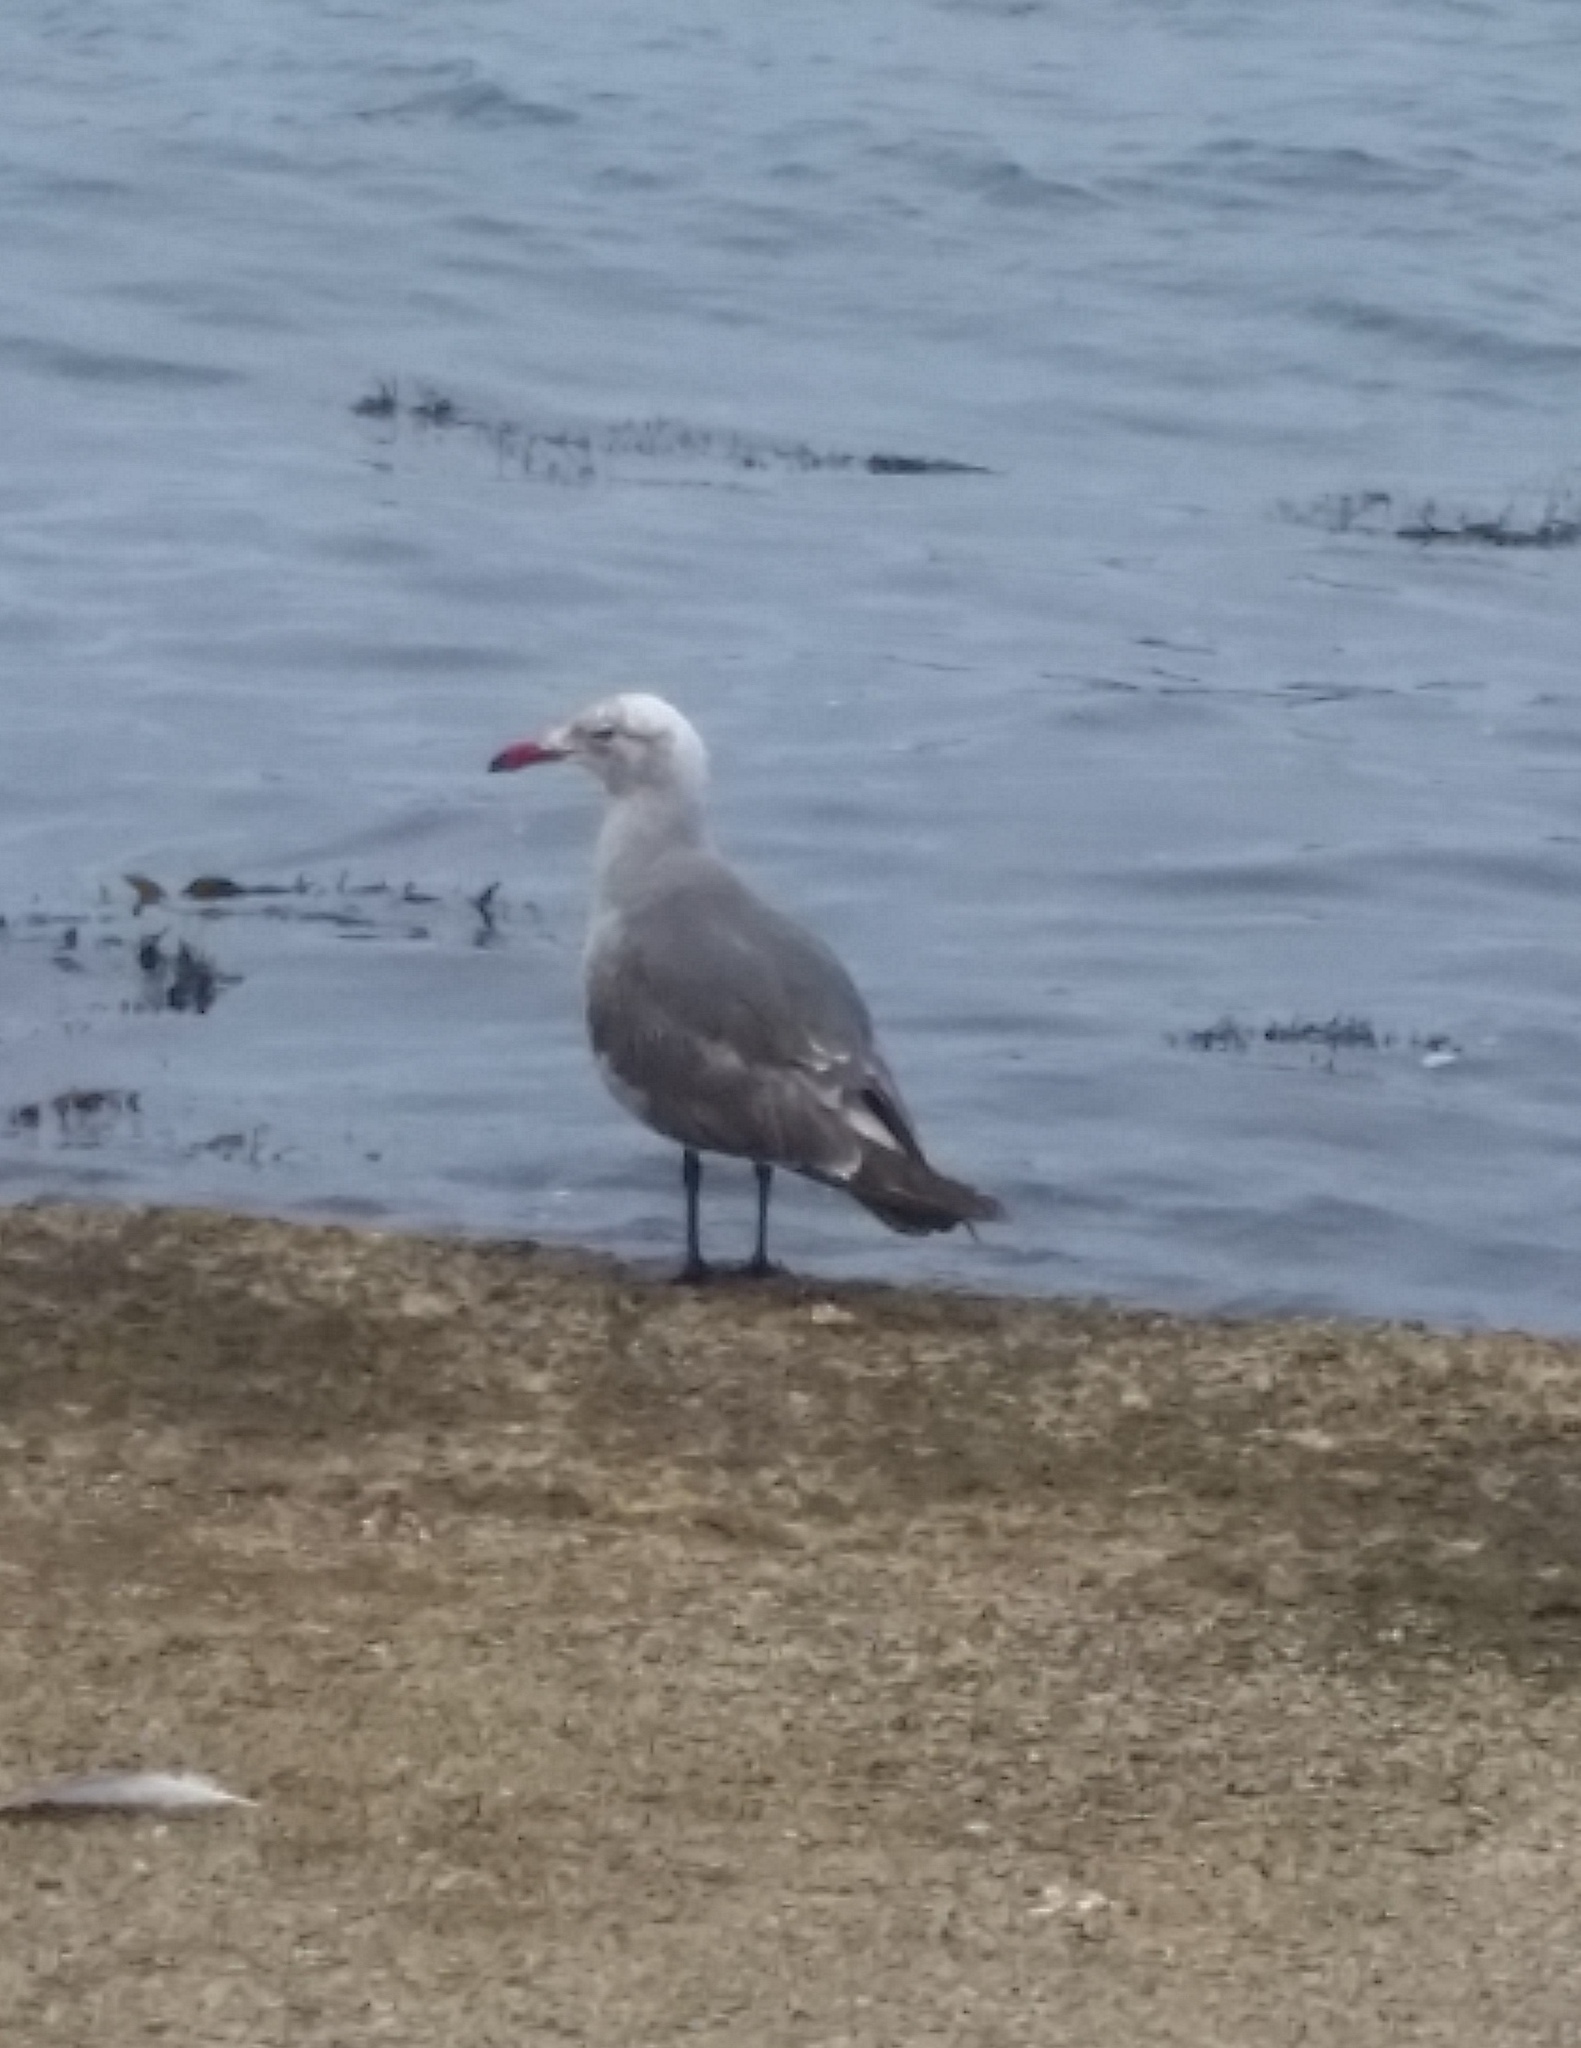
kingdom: Animalia
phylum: Chordata
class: Aves
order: Charadriiformes
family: Laridae
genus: Larus
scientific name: Larus heermanni
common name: Heermann's gull
